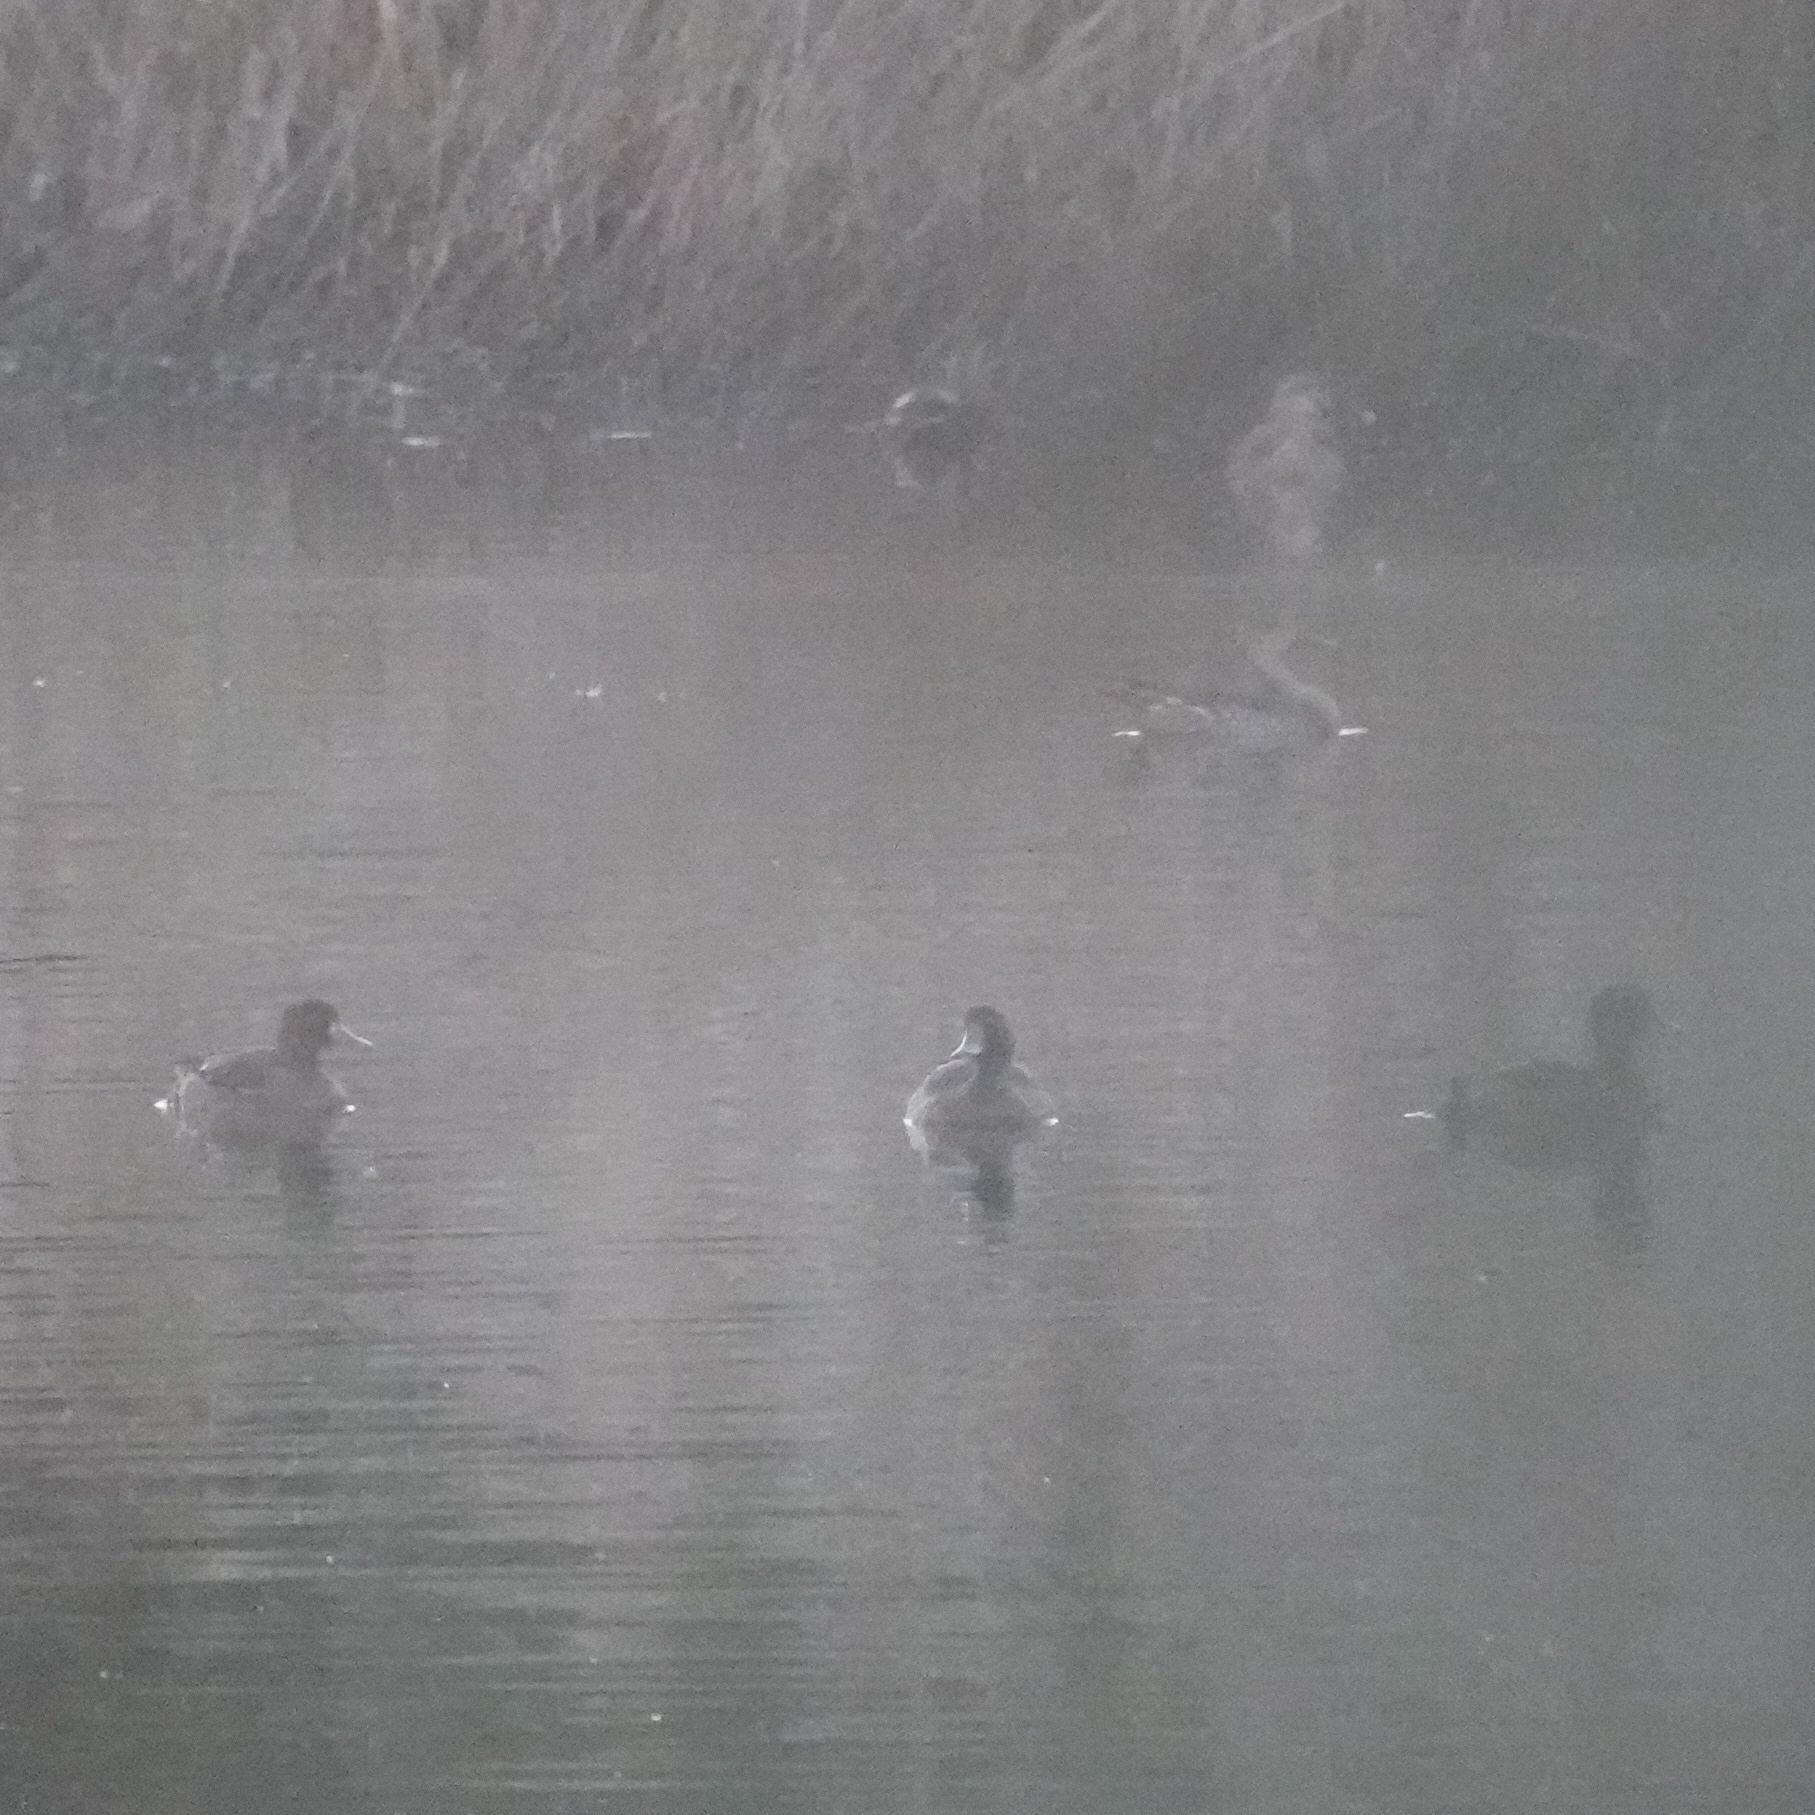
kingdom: Animalia
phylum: Chordata
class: Aves
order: Anseriformes
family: Anatidae
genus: Aythya
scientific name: Aythya fuligula
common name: Tufted duck
